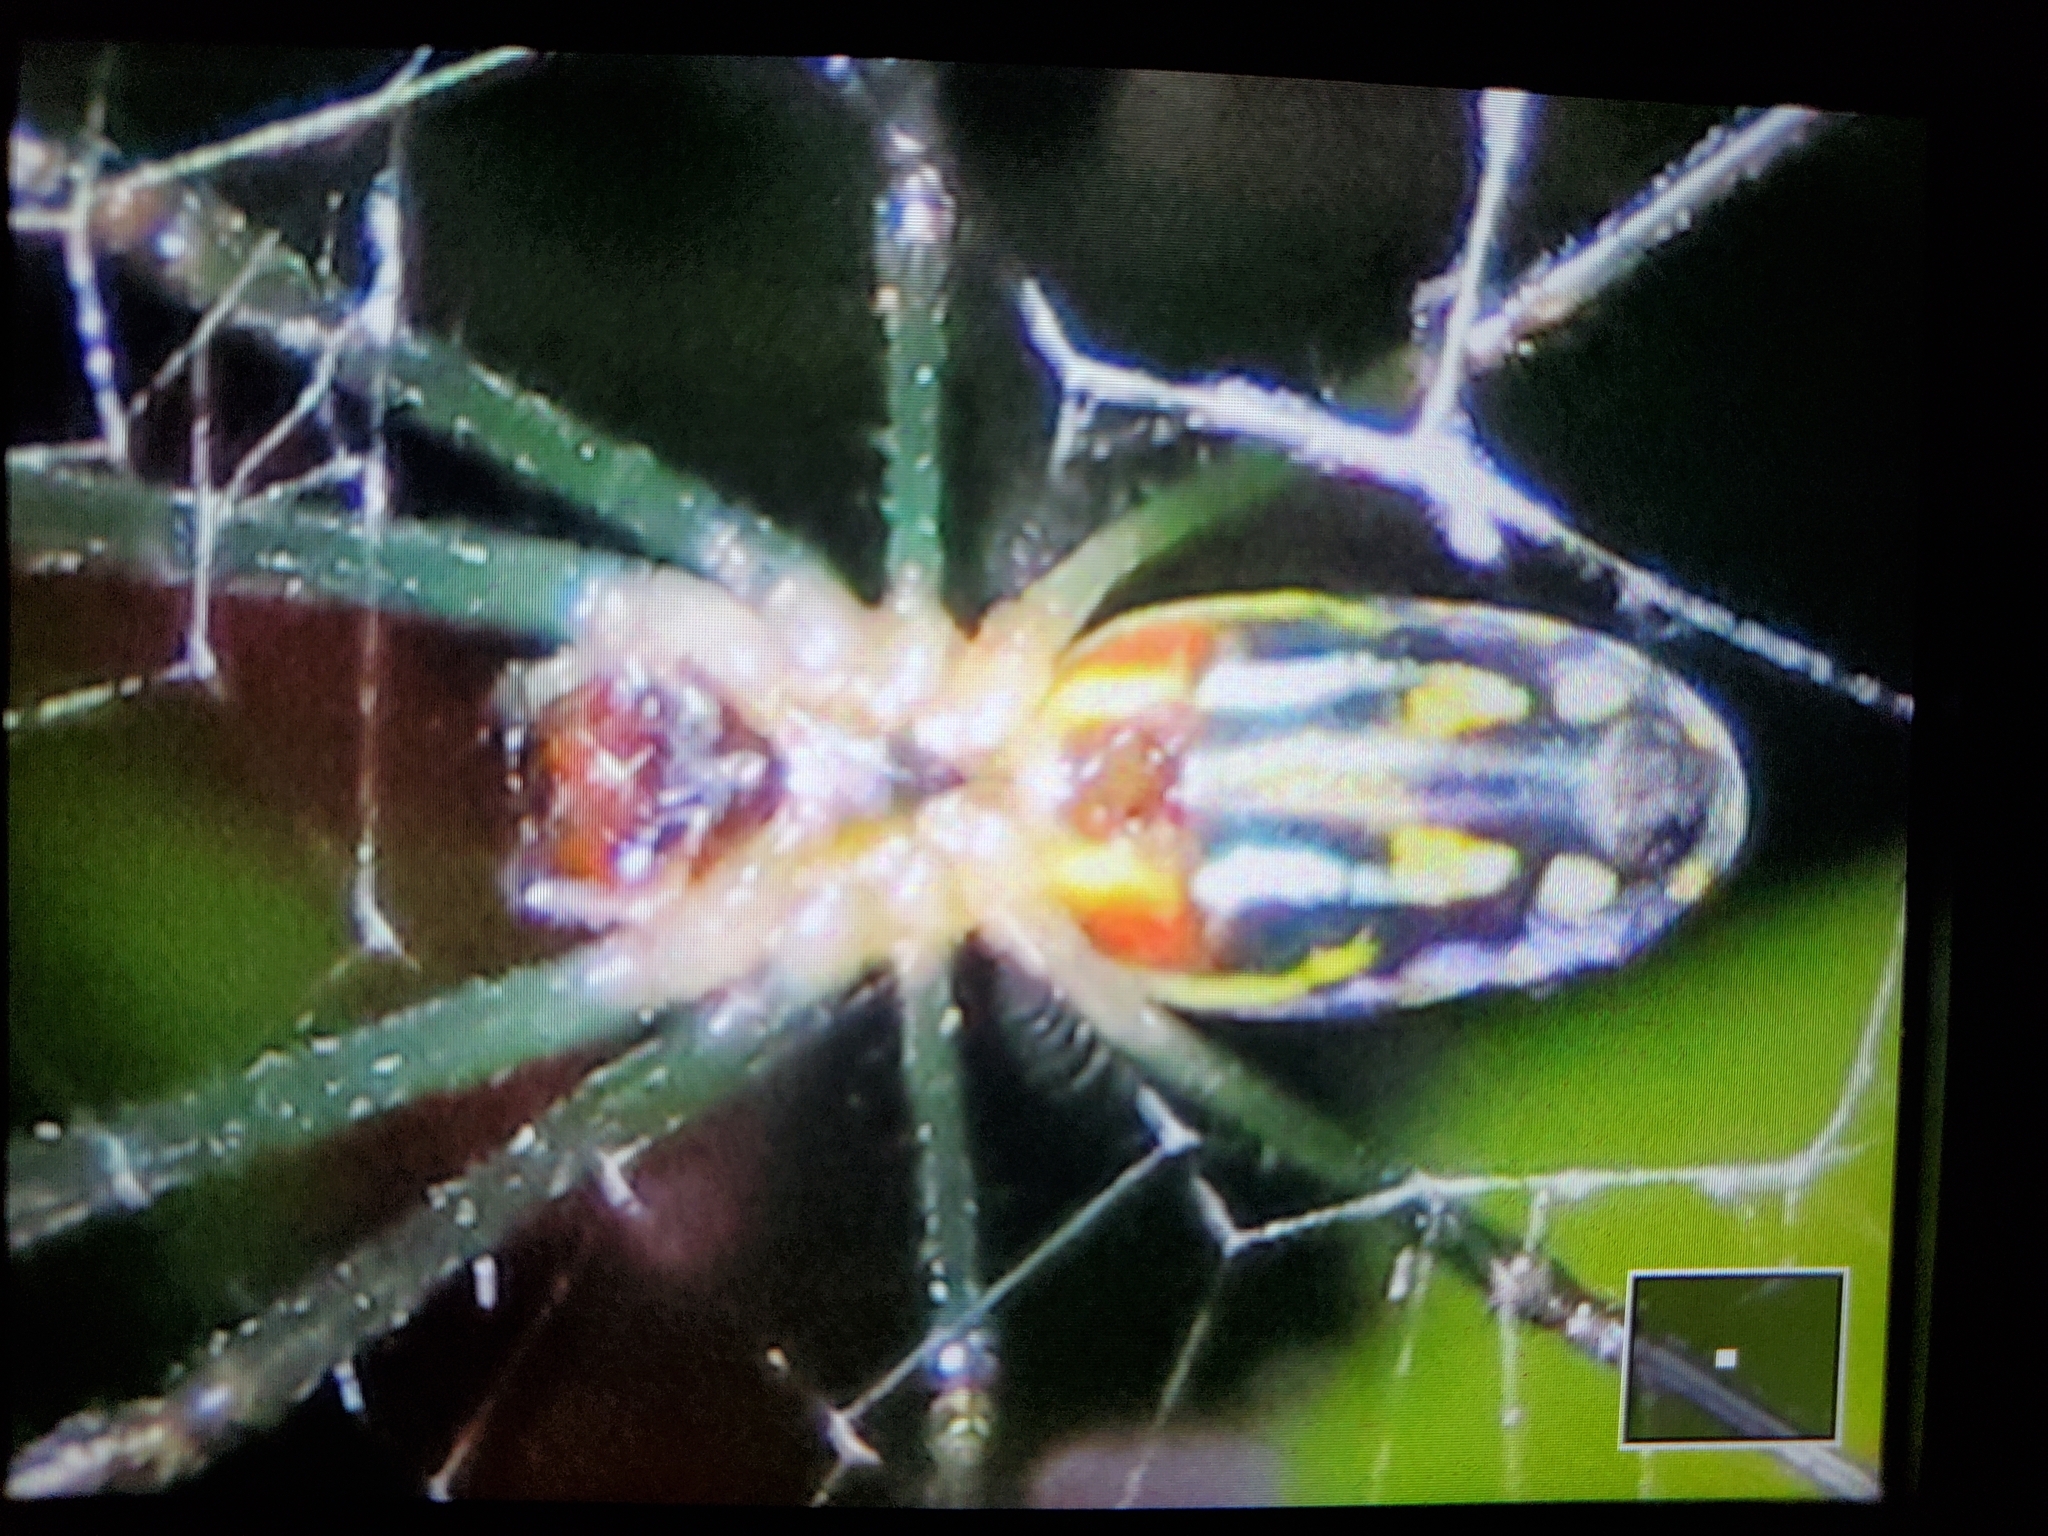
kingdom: Animalia
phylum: Arthropoda
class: Arachnida
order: Araneae
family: Tetragnathidae
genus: Leucauge
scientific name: Leucauge argyra
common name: Longjawed orb weavers
